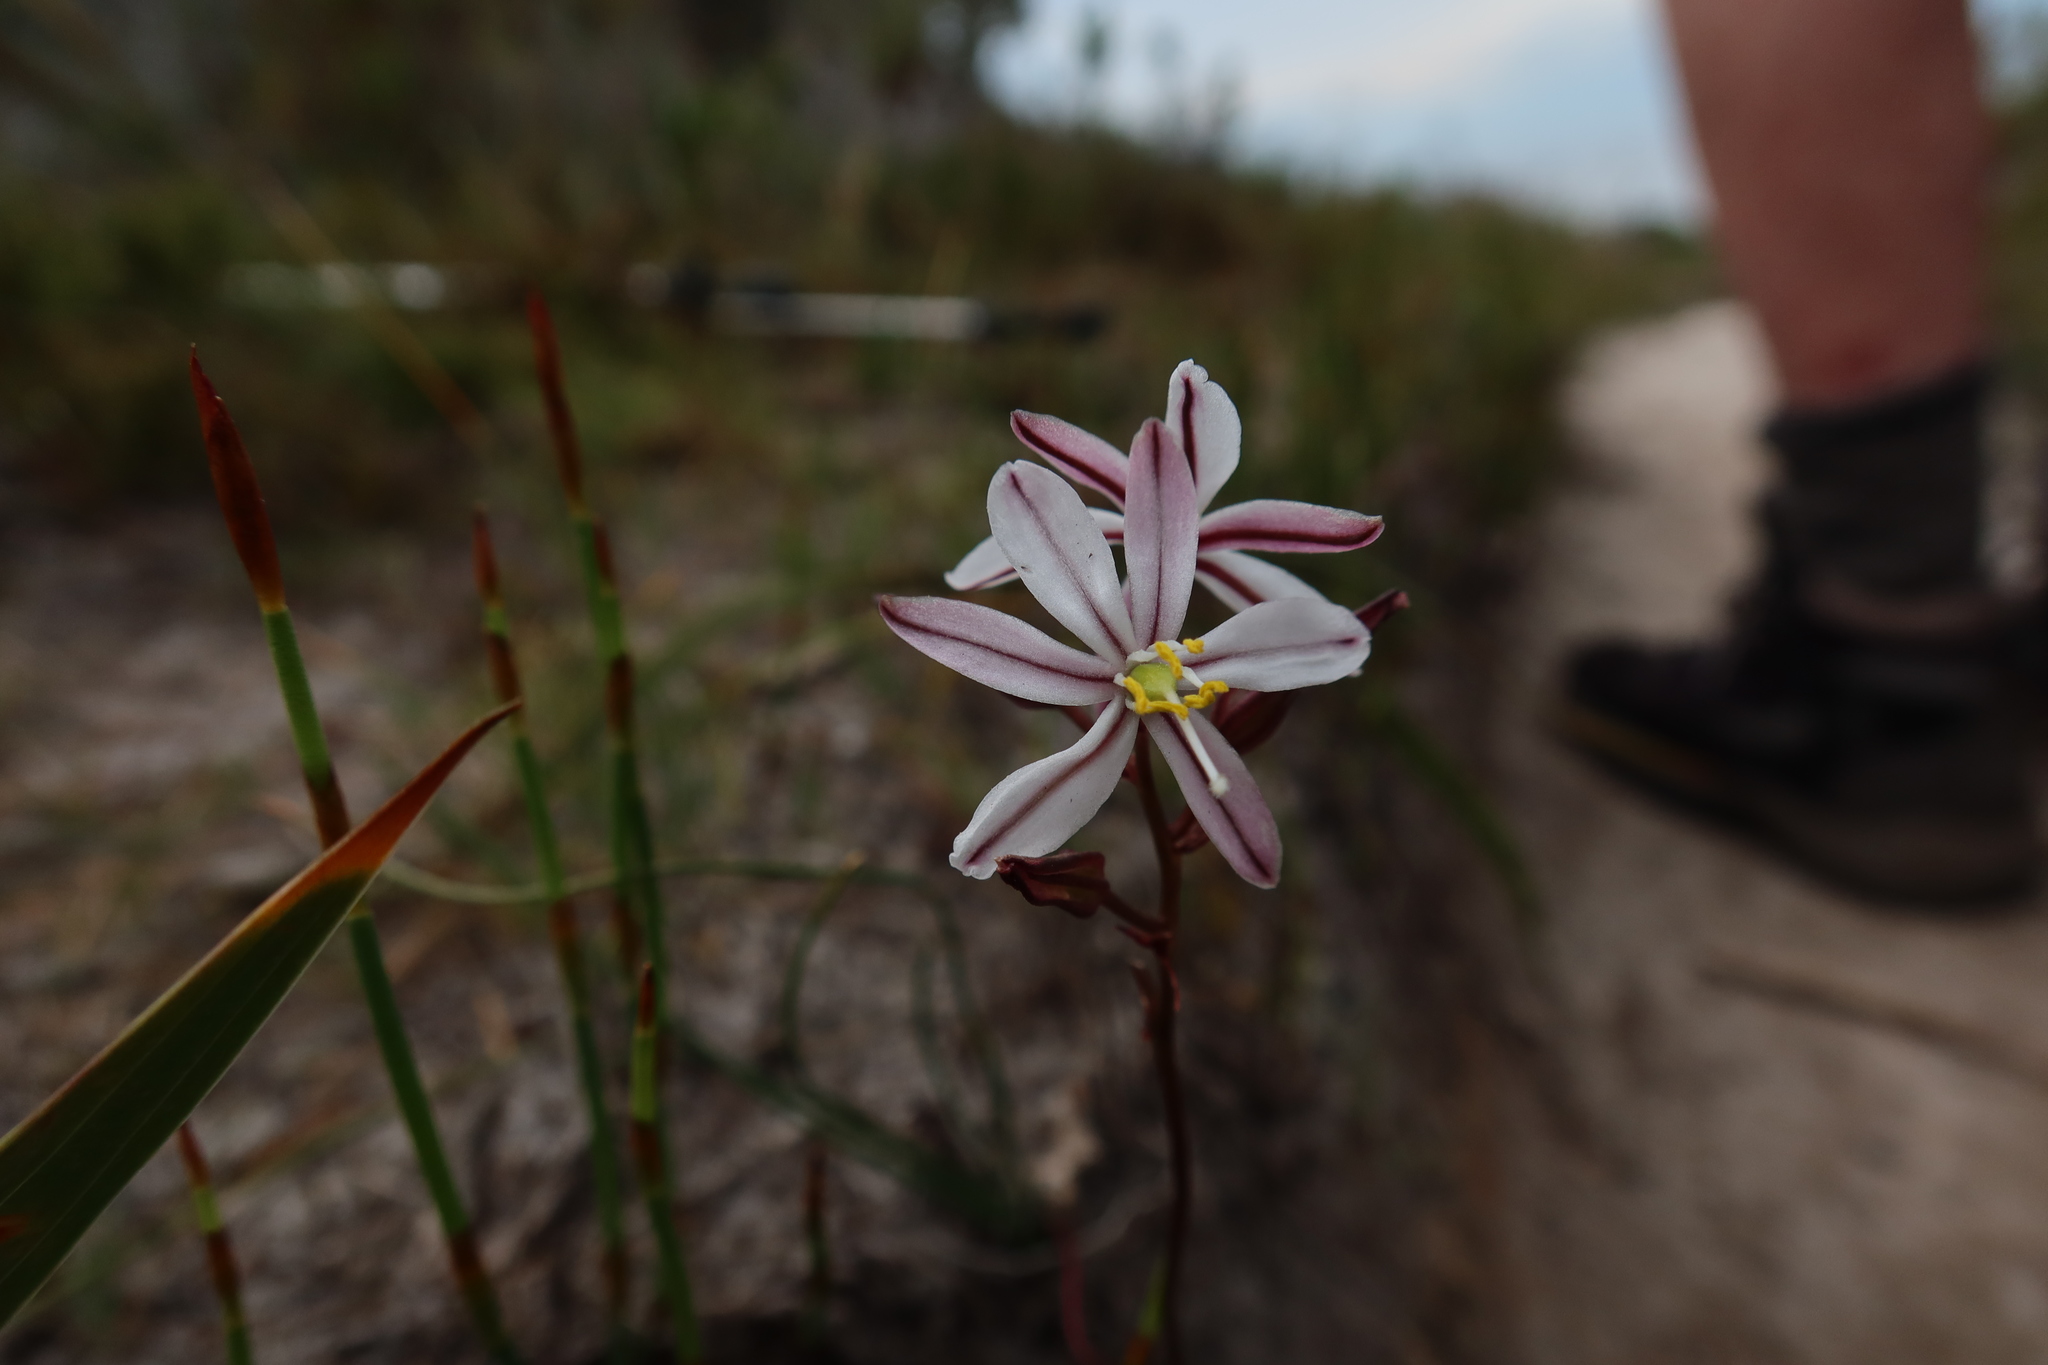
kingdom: Plantae
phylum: Tracheophyta
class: Liliopsida
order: Asparagales
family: Asparagaceae
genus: Drimia
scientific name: Drimia exuviata
